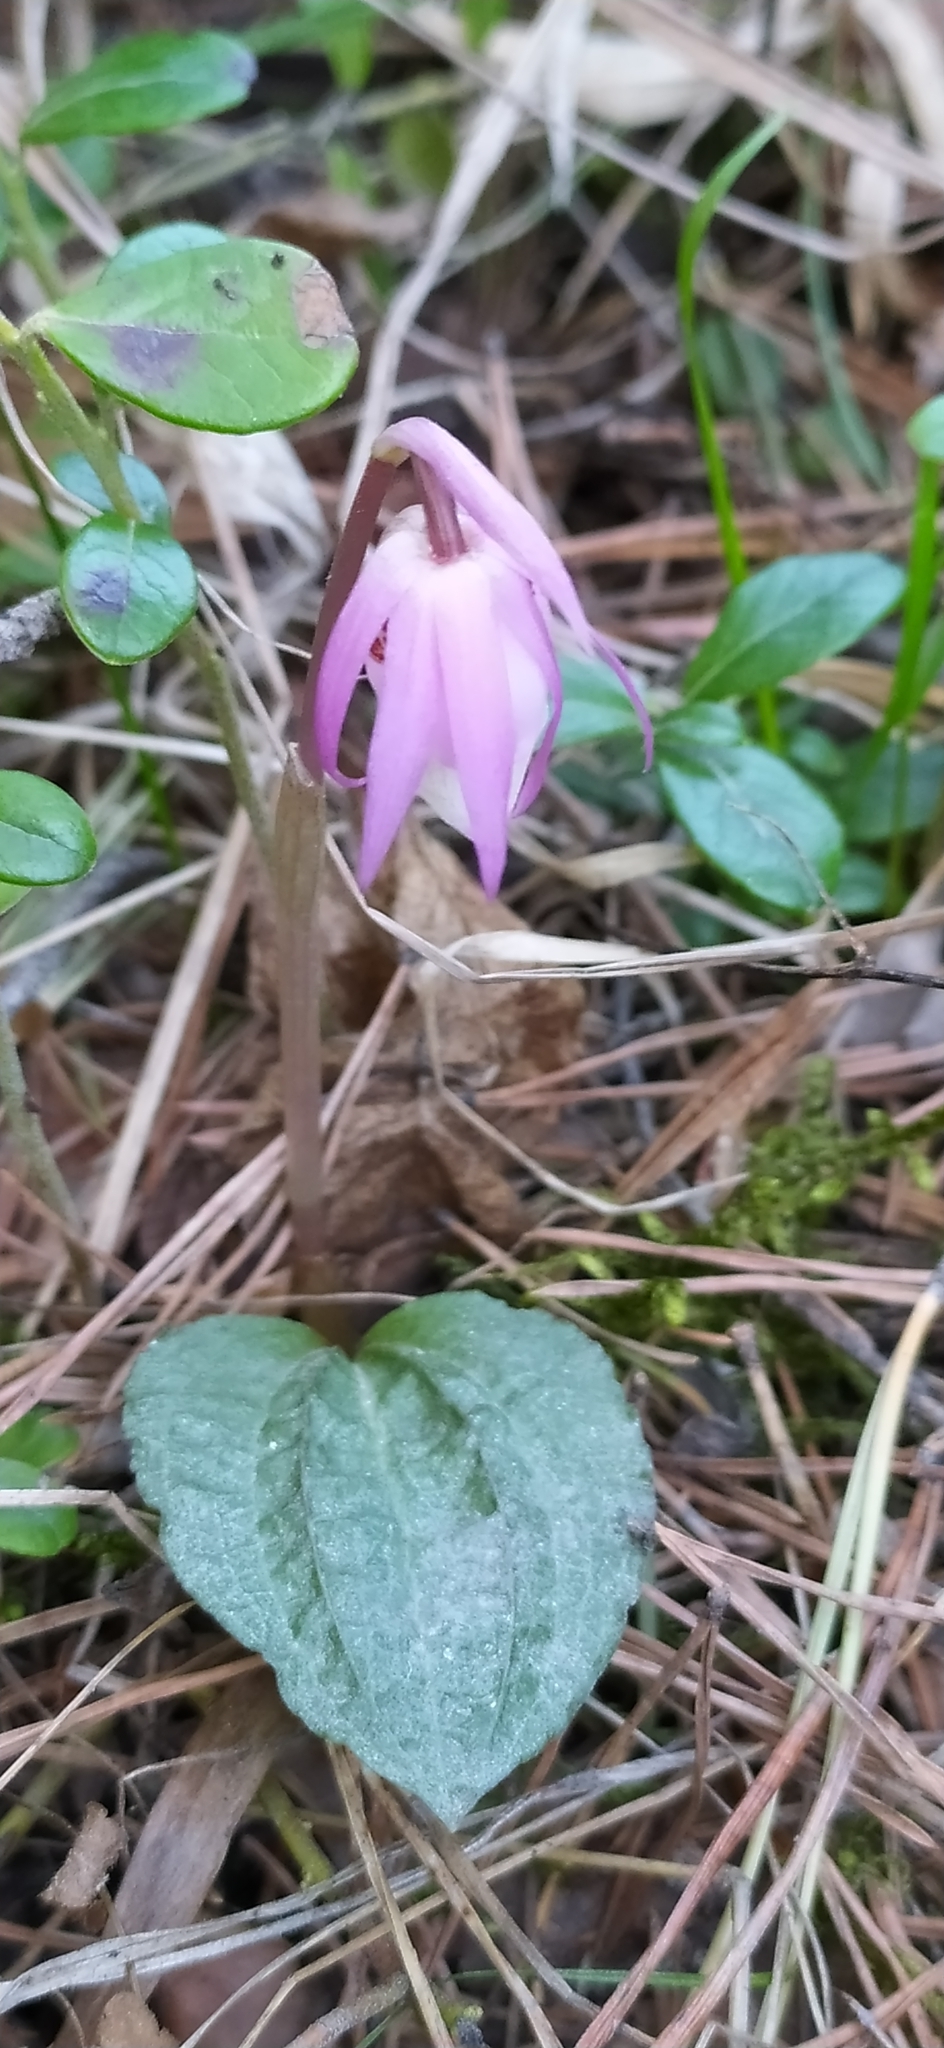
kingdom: Plantae
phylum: Tracheophyta
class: Liliopsida
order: Asparagales
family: Orchidaceae
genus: Calypso
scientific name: Calypso bulbosa
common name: Calypso
